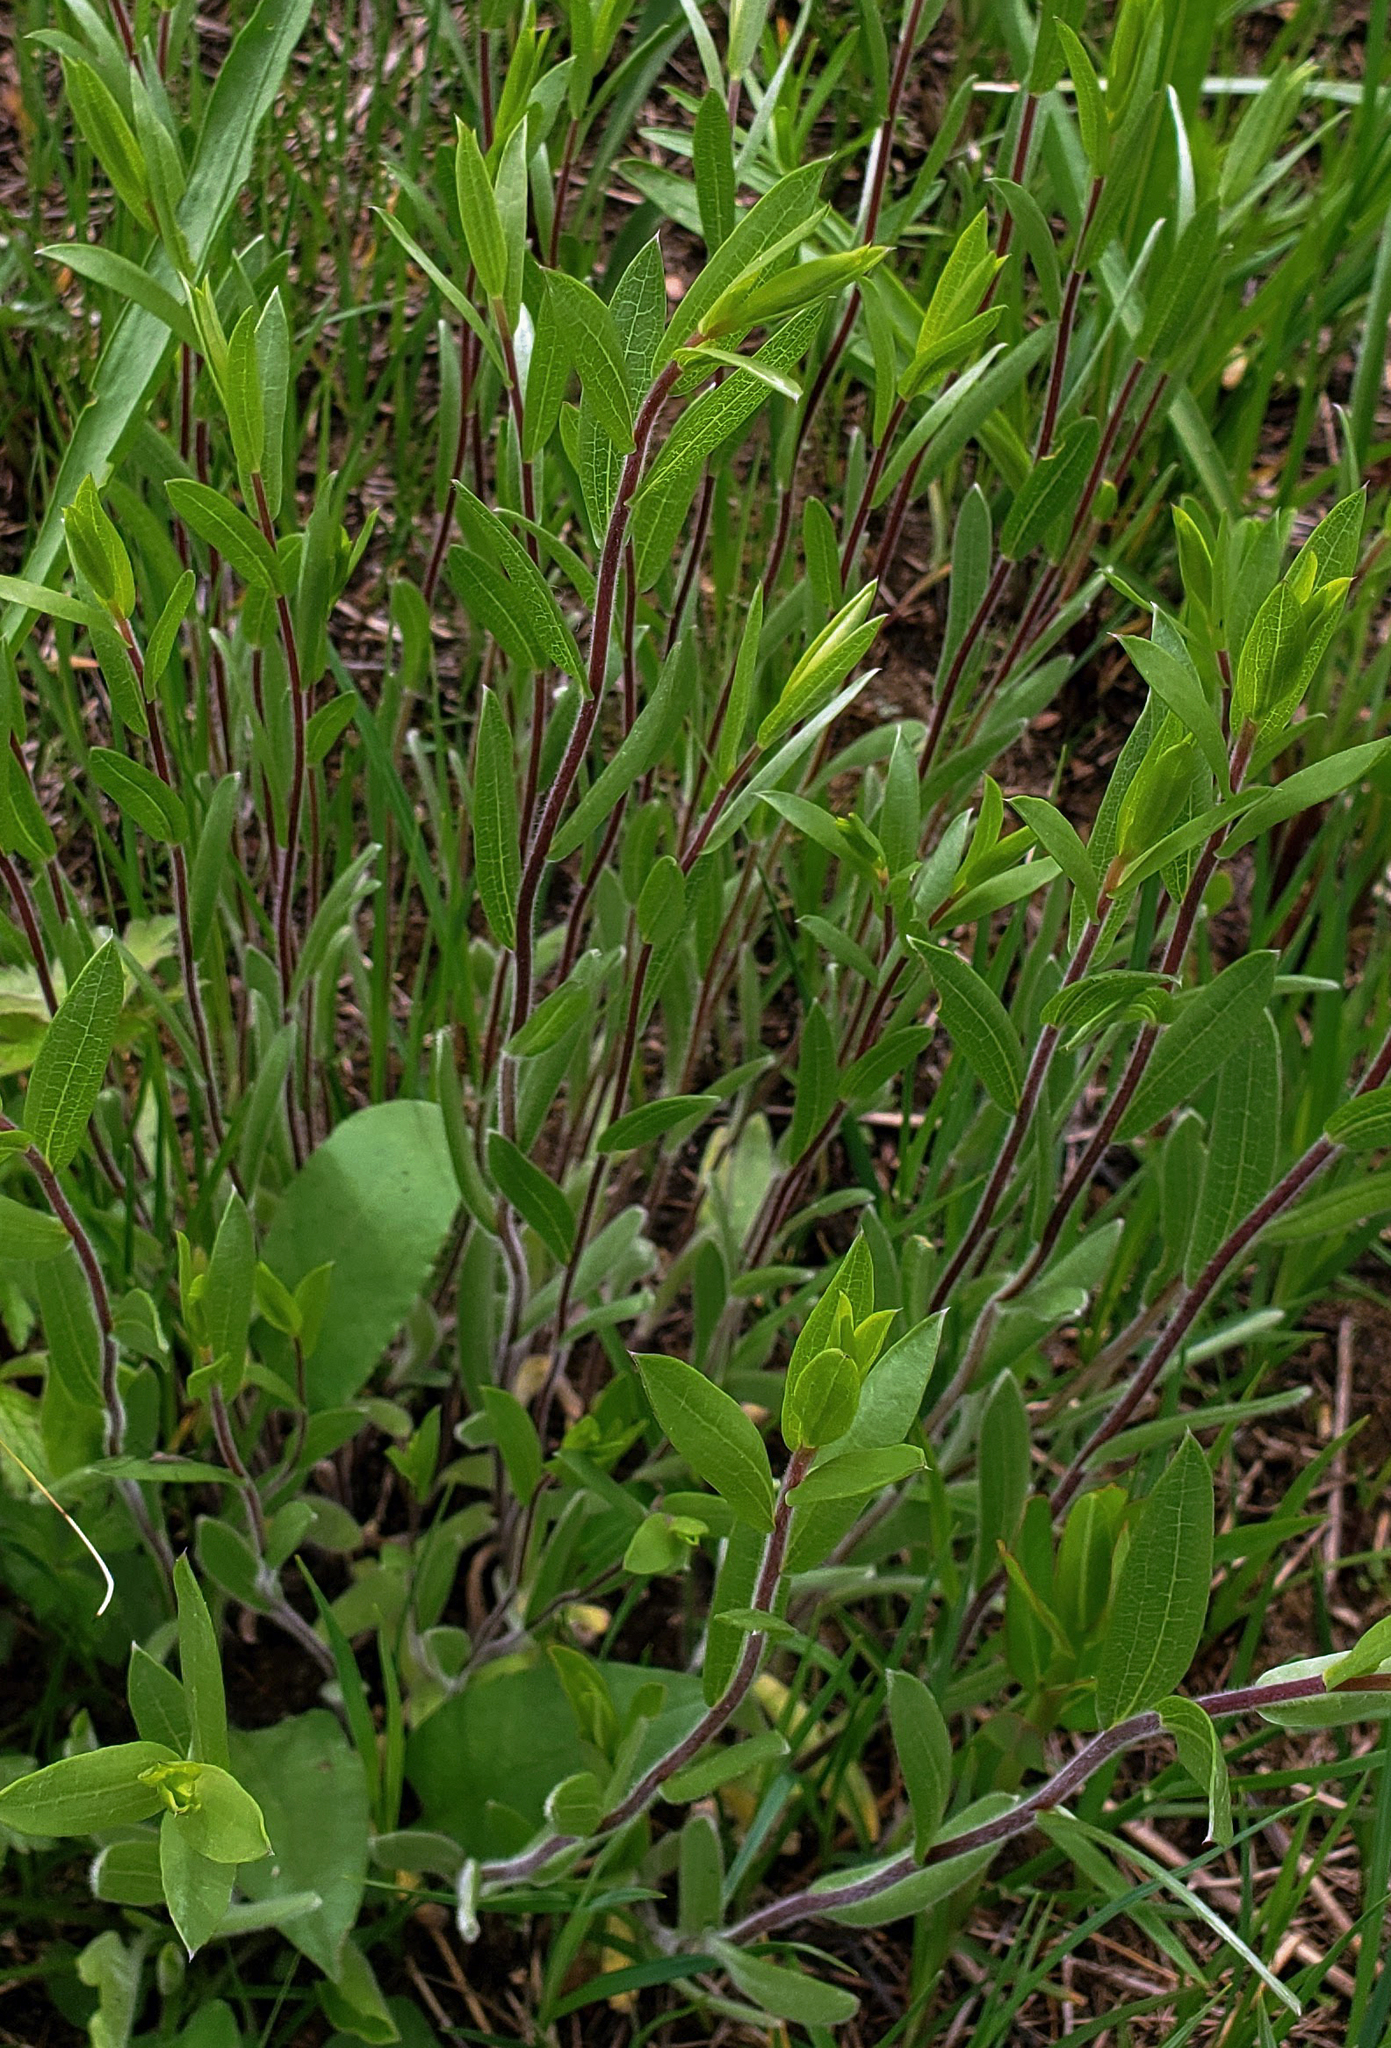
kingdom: Plantae
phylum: Tracheophyta
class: Magnoliopsida
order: Asterales
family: Asteraceae
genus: Symphyotrichum
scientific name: Symphyotrichum sericeum
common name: Silky aster
